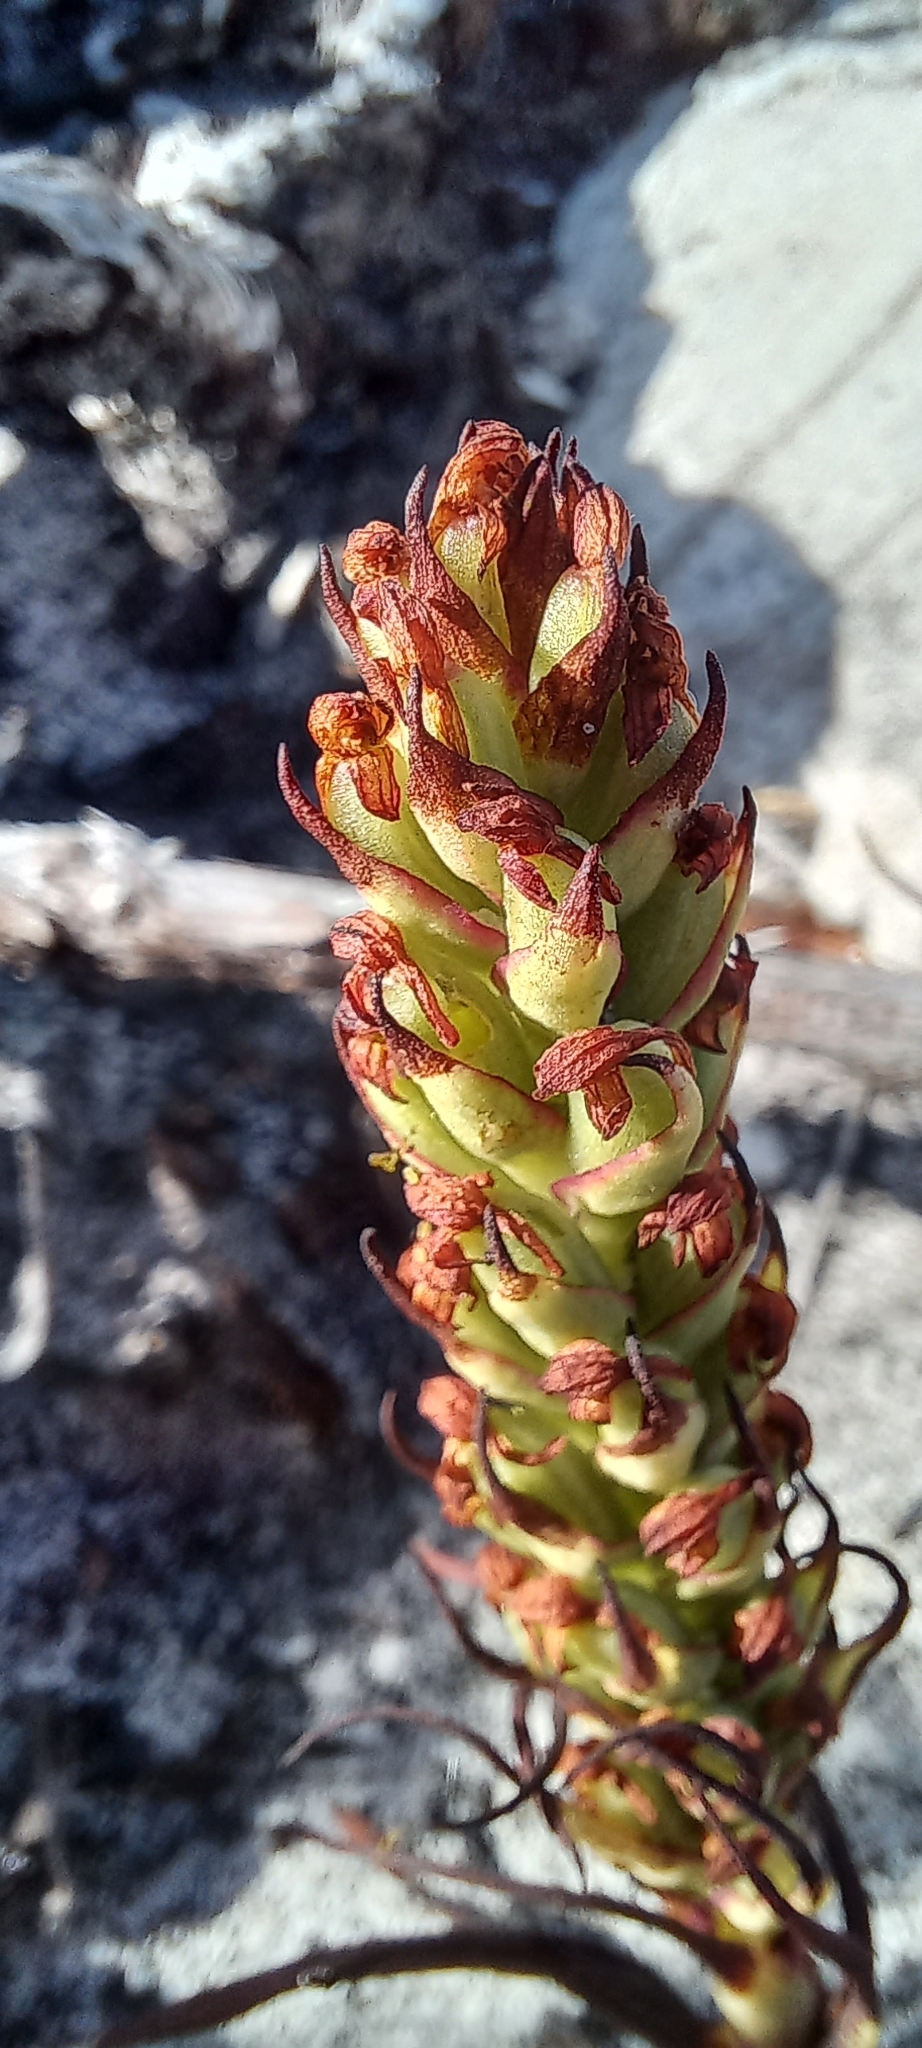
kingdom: Plantae
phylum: Tracheophyta
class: Liliopsida
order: Asparagales
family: Orchidaceae
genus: Disa
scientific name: Disa bracteata
